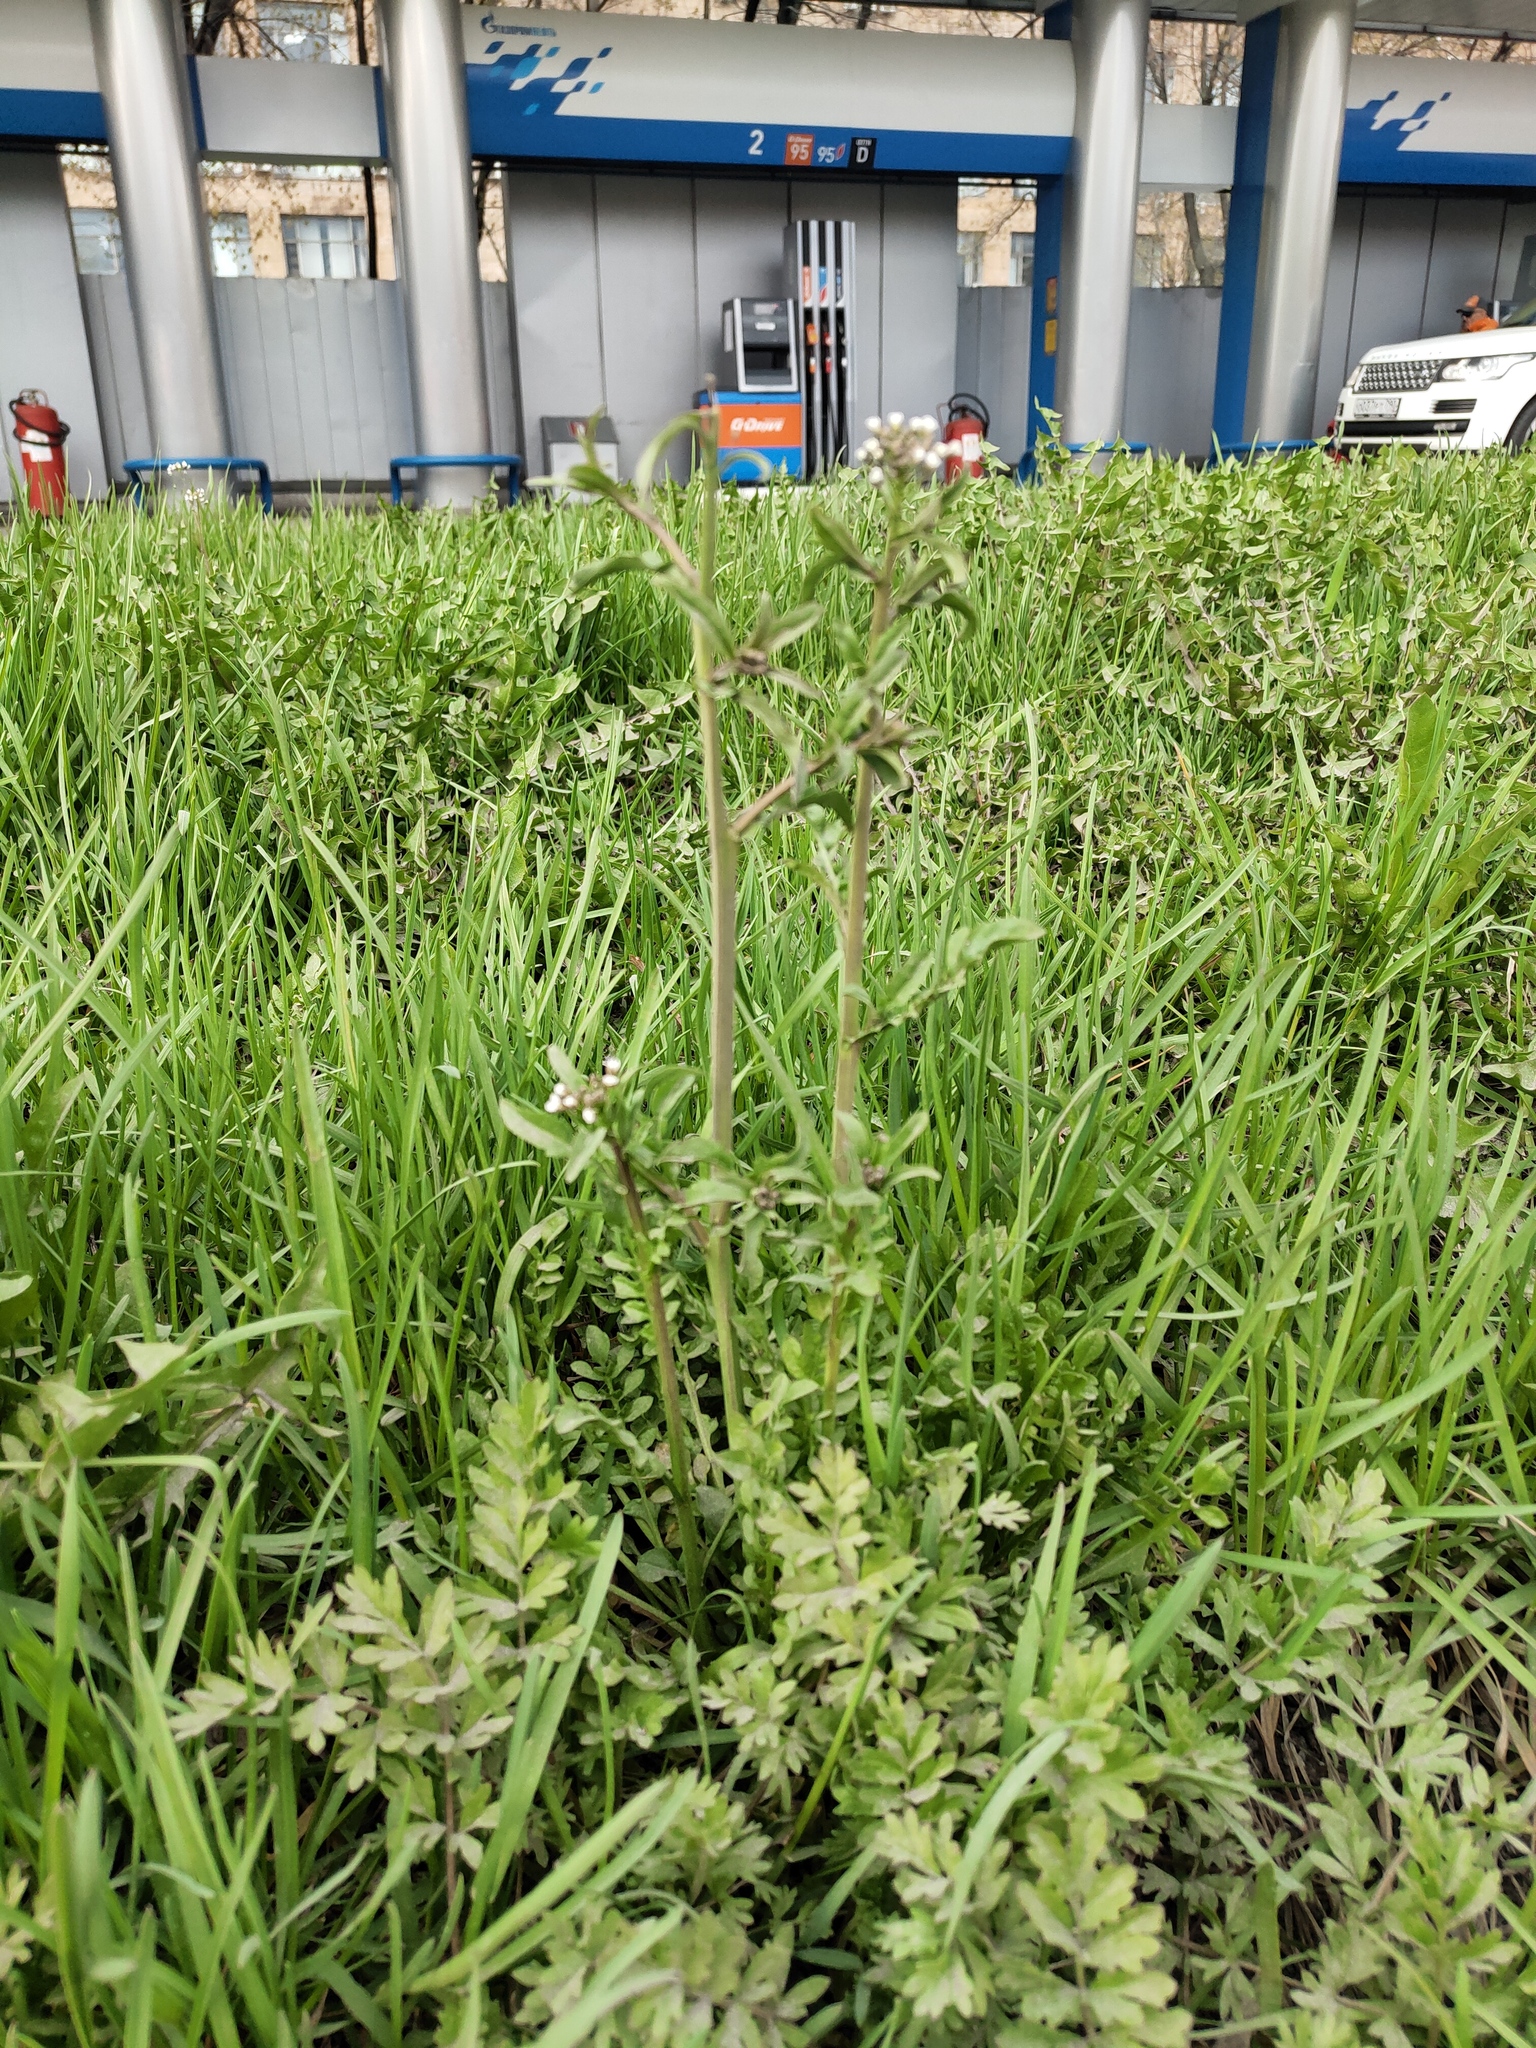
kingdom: Plantae
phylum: Tracheophyta
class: Magnoliopsida
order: Brassicales
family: Brassicaceae
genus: Capsella
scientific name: Capsella bursa-pastoris
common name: Shepherd's purse
